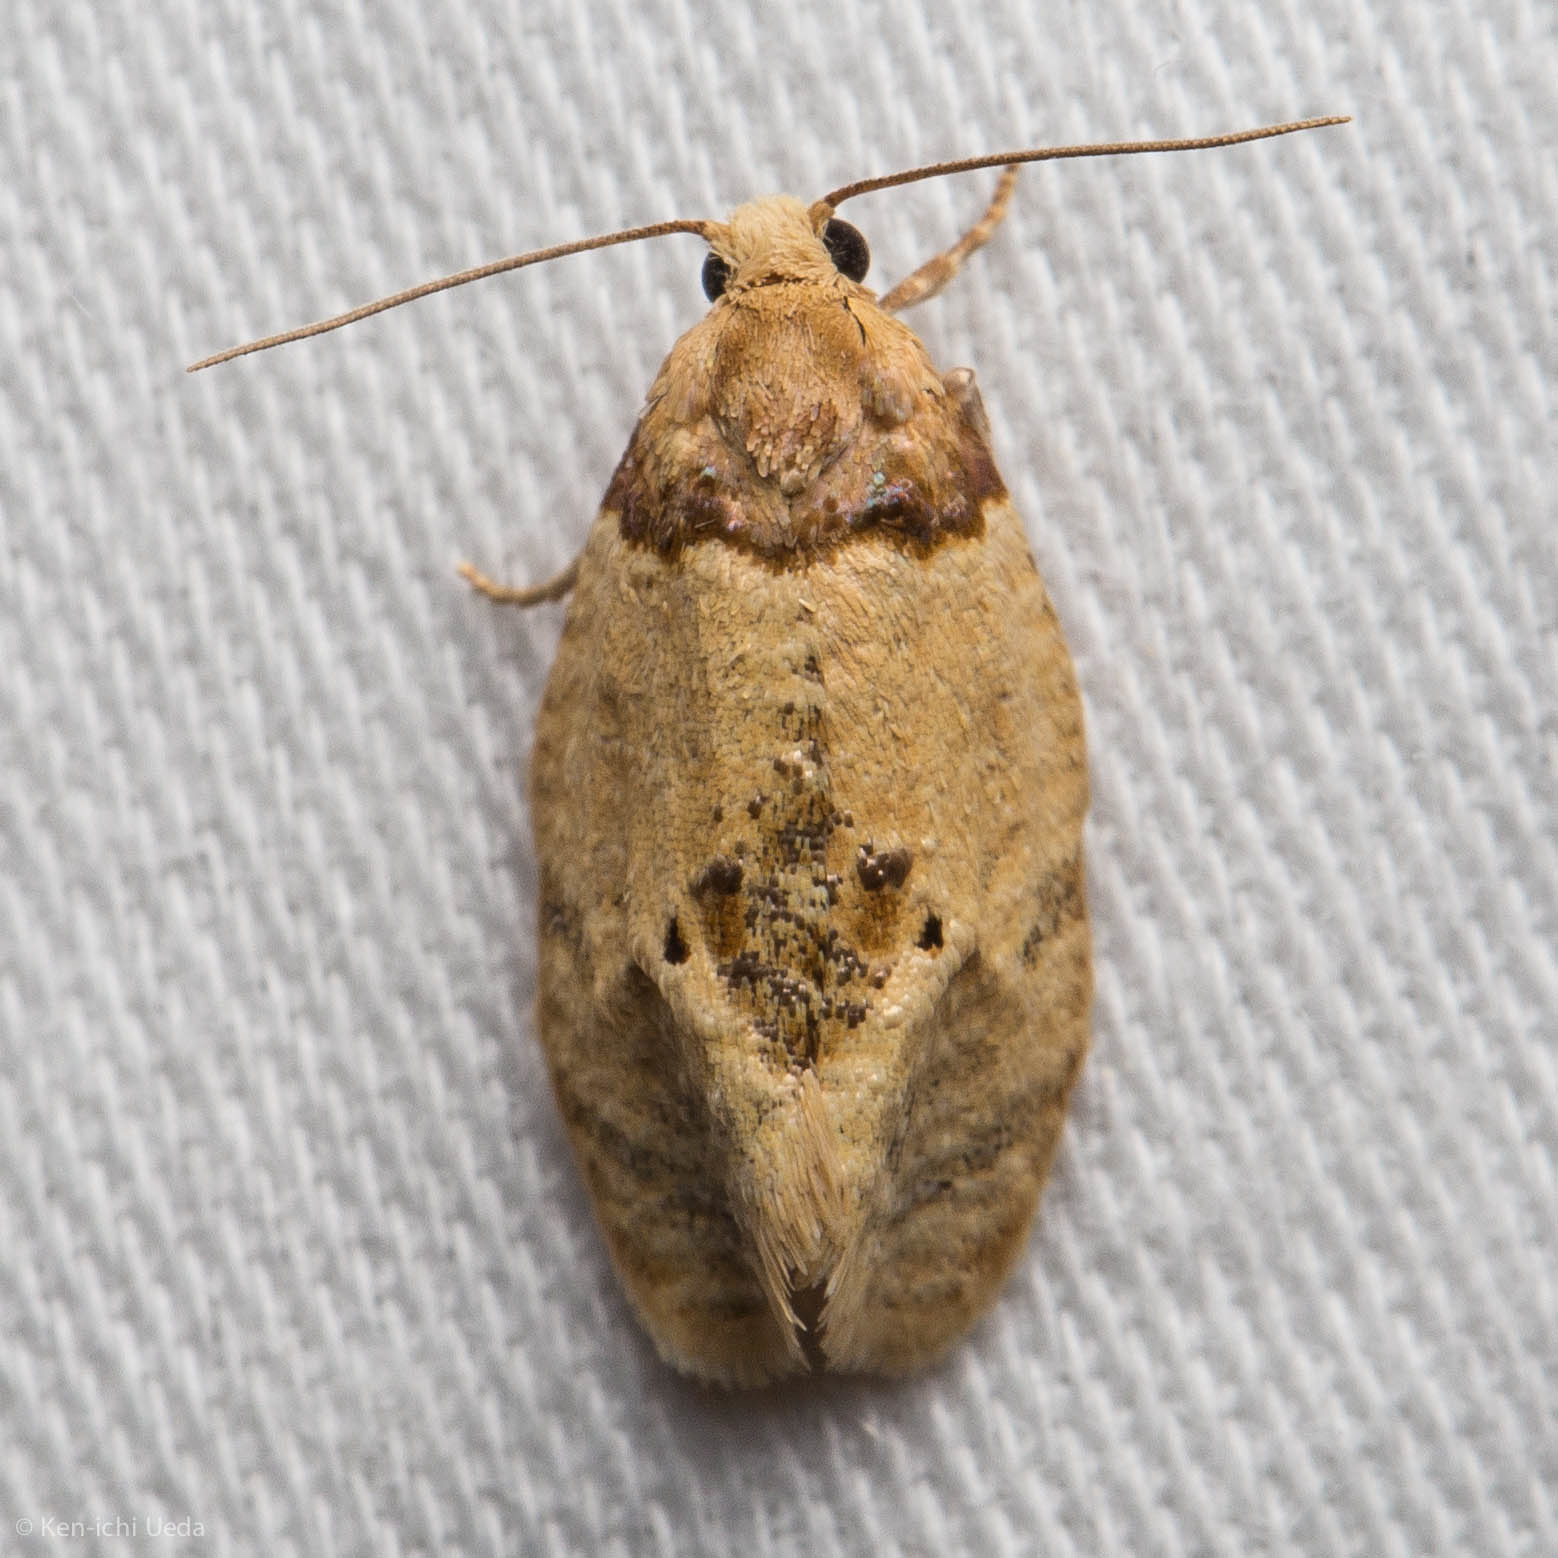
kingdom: Animalia
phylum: Arthropoda
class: Insecta
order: Lepidoptera
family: Tortricidae
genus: Henricus
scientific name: Henricus umbrabasana
